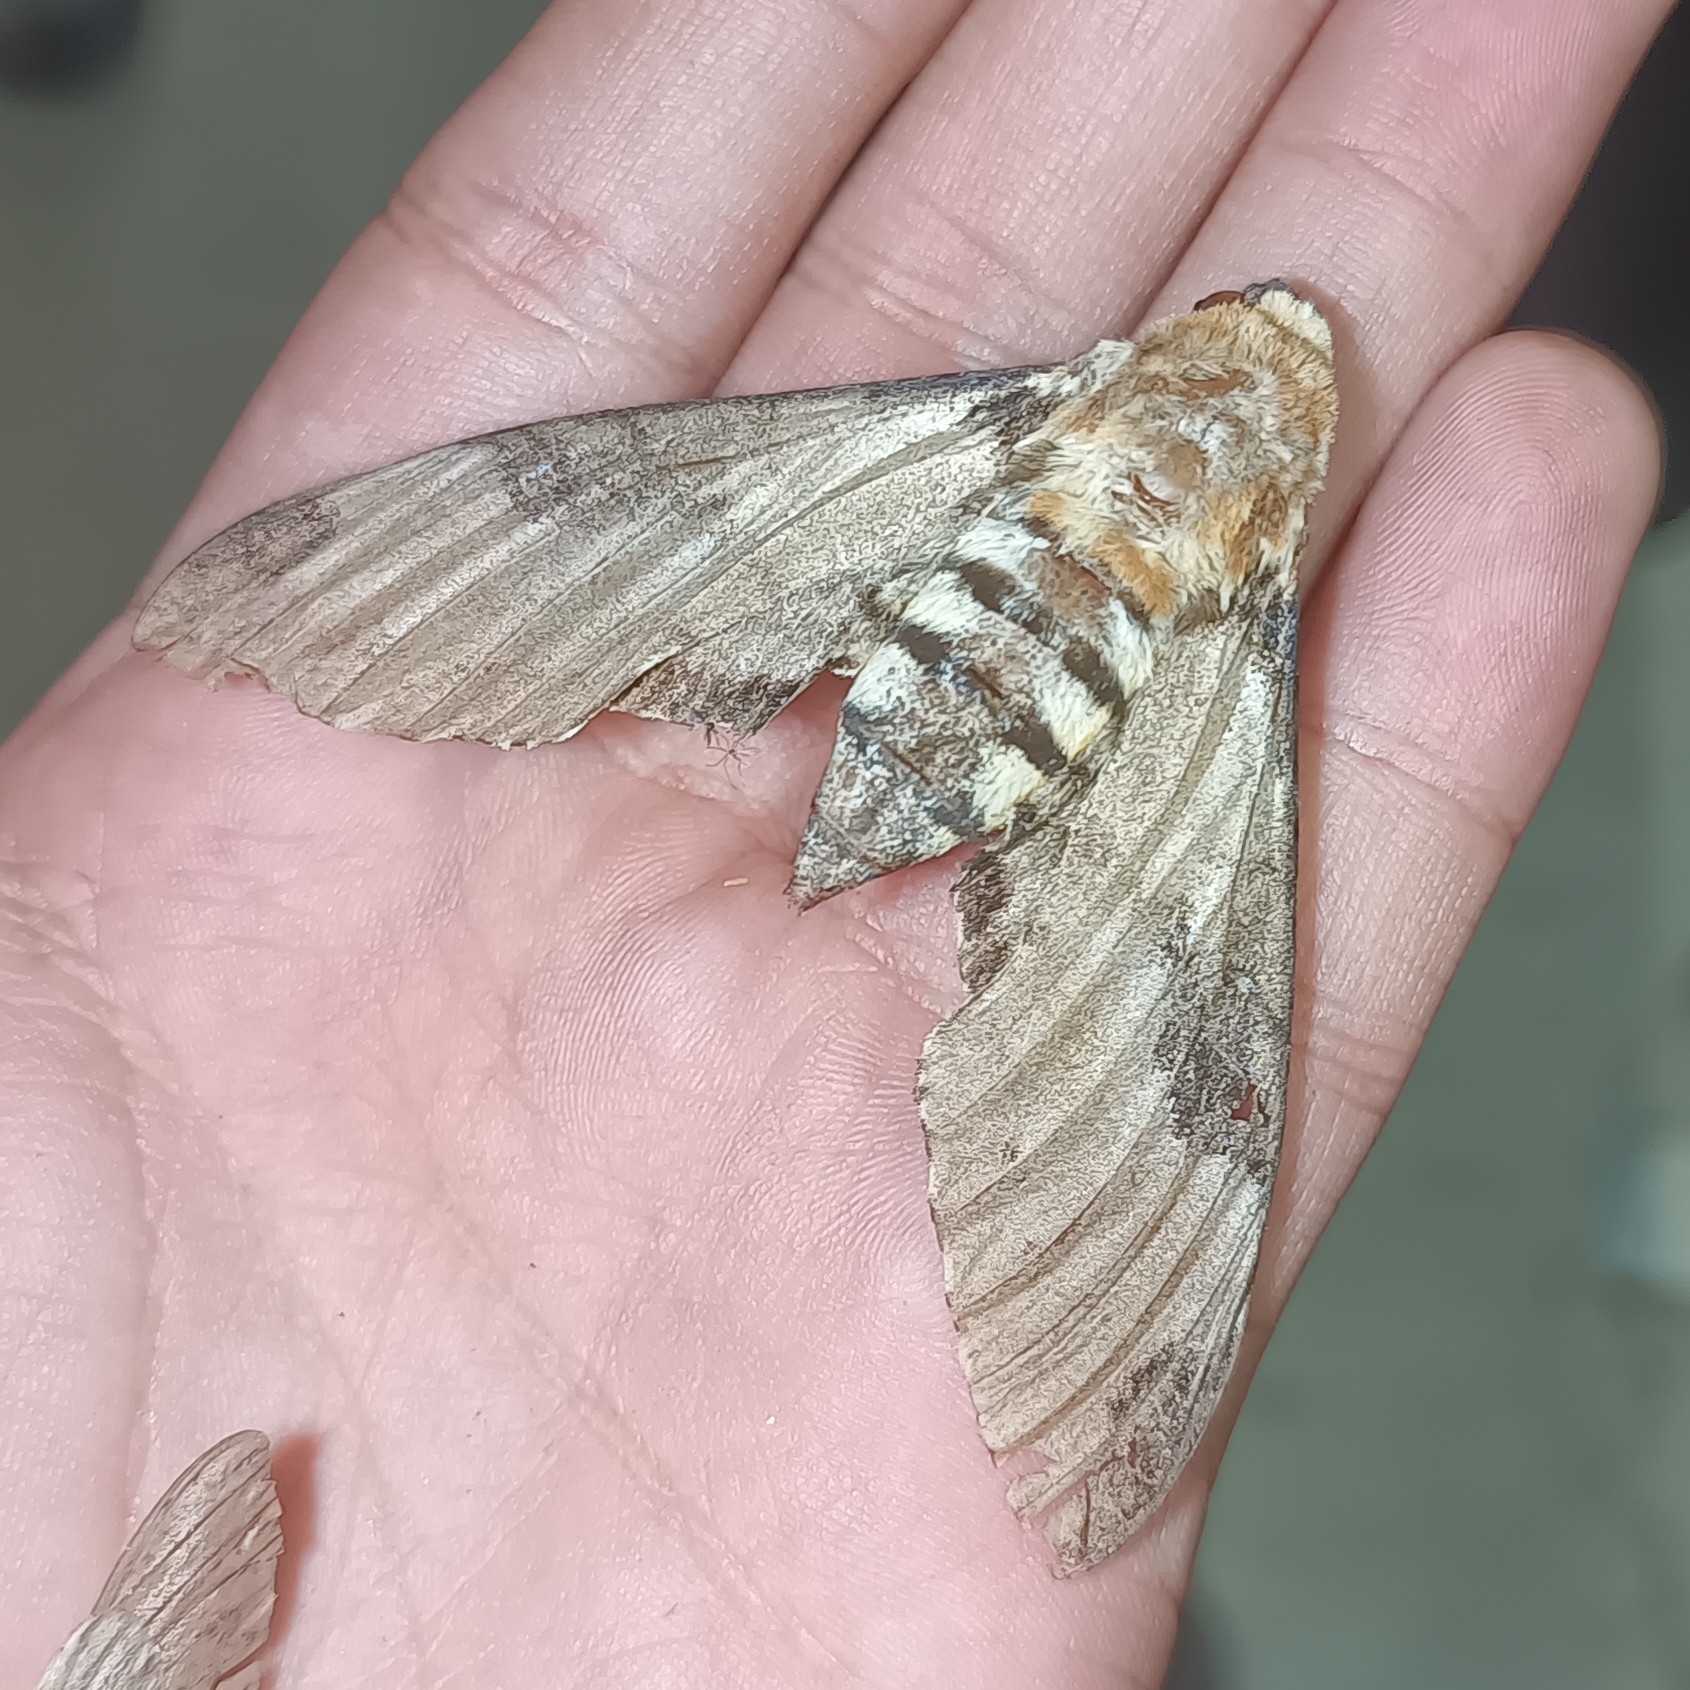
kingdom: Animalia
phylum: Arthropoda
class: Insecta
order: Lepidoptera
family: Sphingidae
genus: Manduca
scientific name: Manduca ochus
